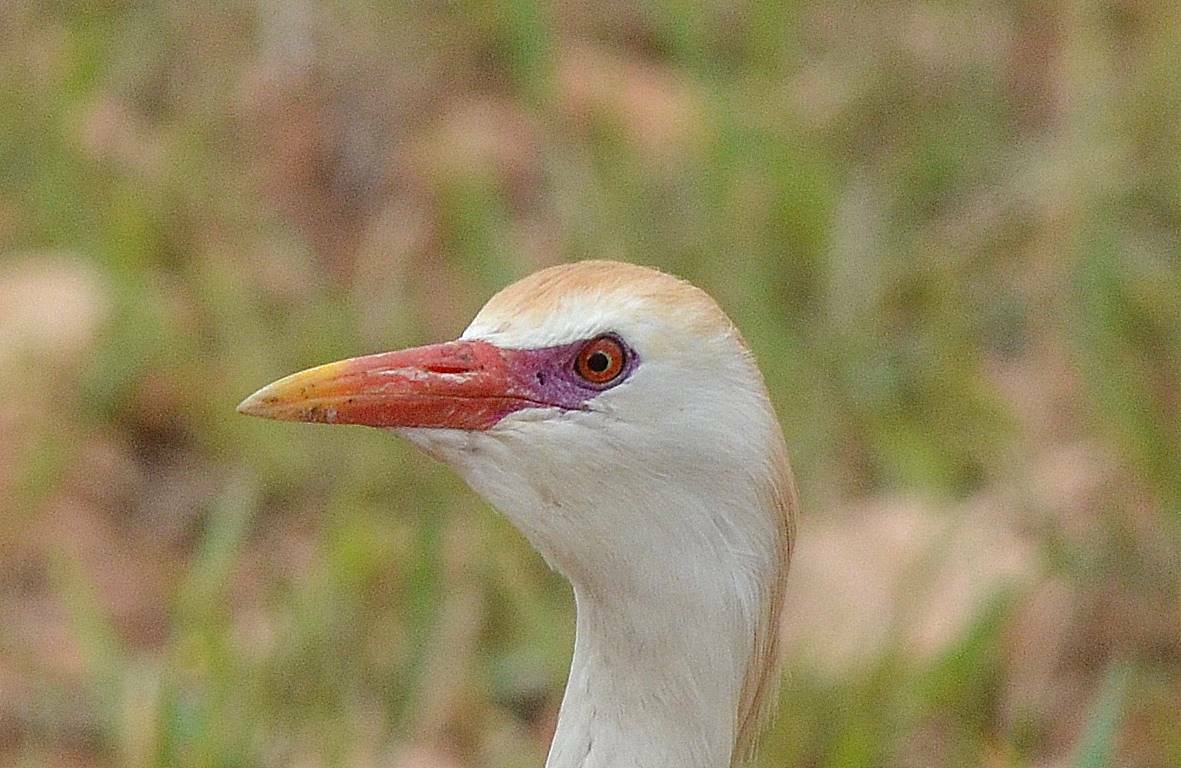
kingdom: Animalia
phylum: Chordata
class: Aves
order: Pelecaniformes
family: Ardeidae
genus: Bubulcus
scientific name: Bubulcus ibis
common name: Cattle egret
